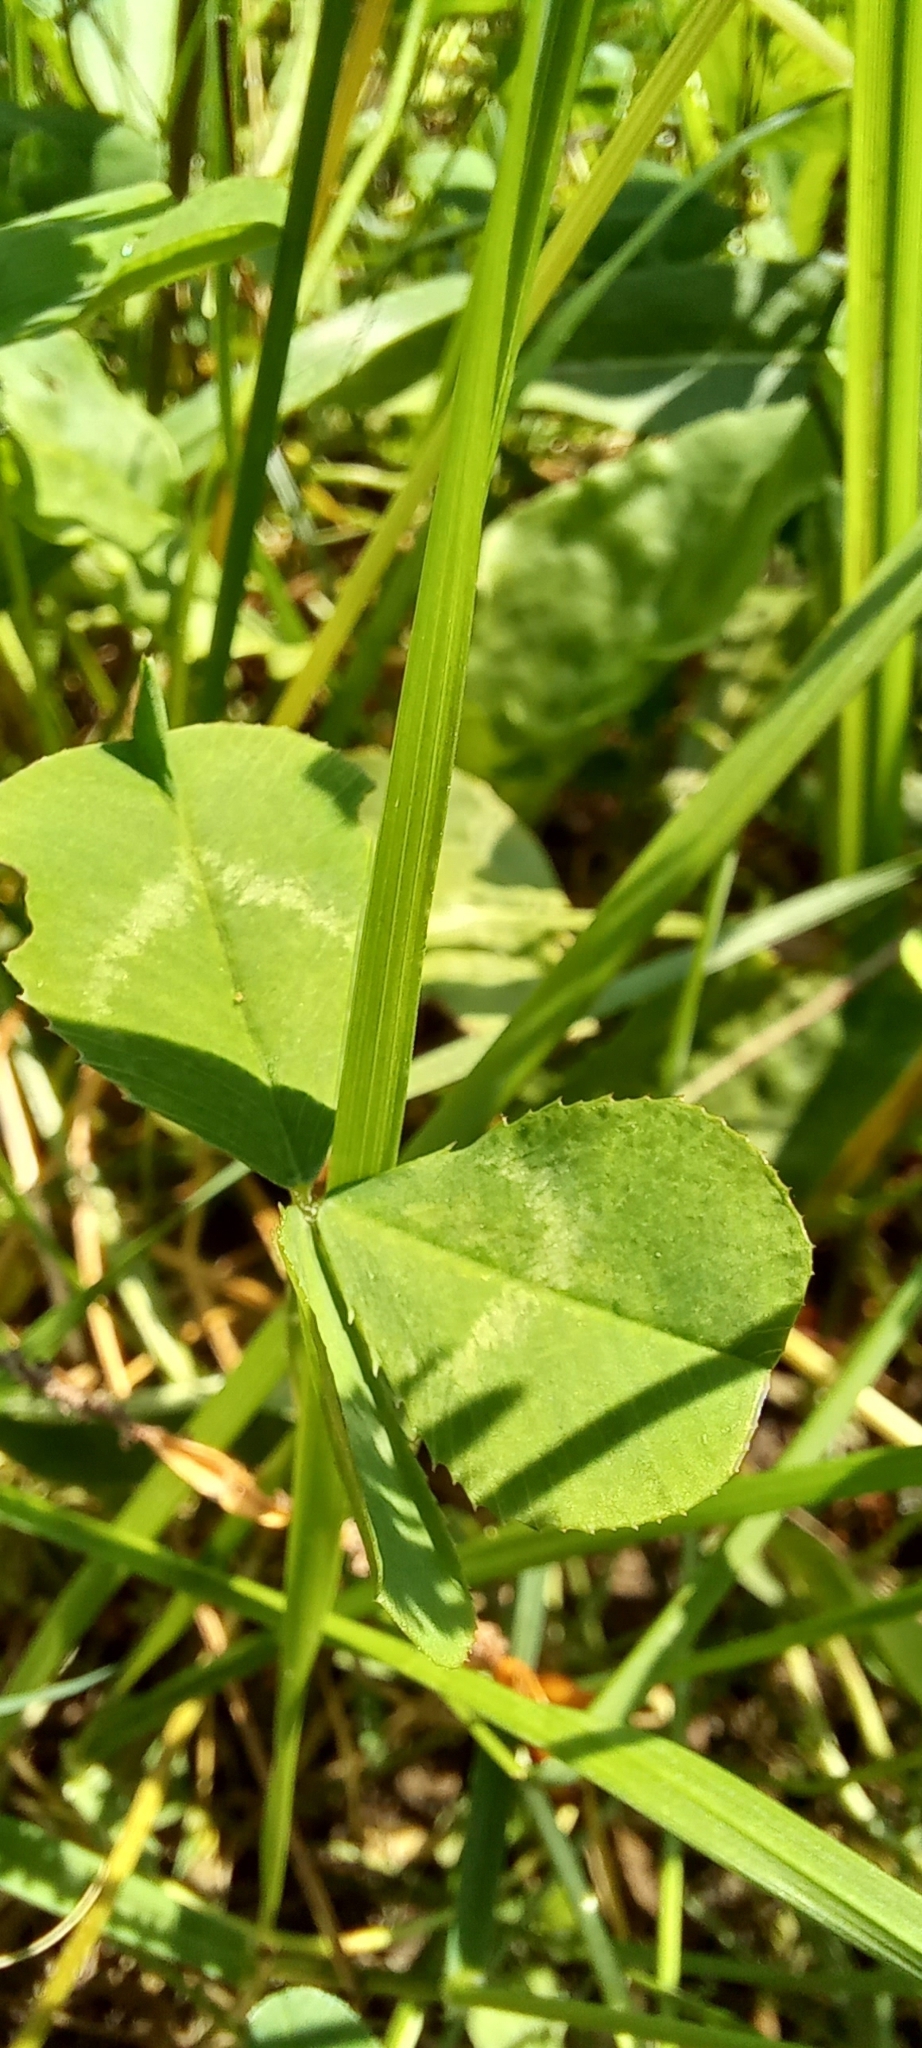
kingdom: Plantae
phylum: Tracheophyta
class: Magnoliopsida
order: Fabales
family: Fabaceae
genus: Trifolium
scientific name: Trifolium repens
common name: White clover
